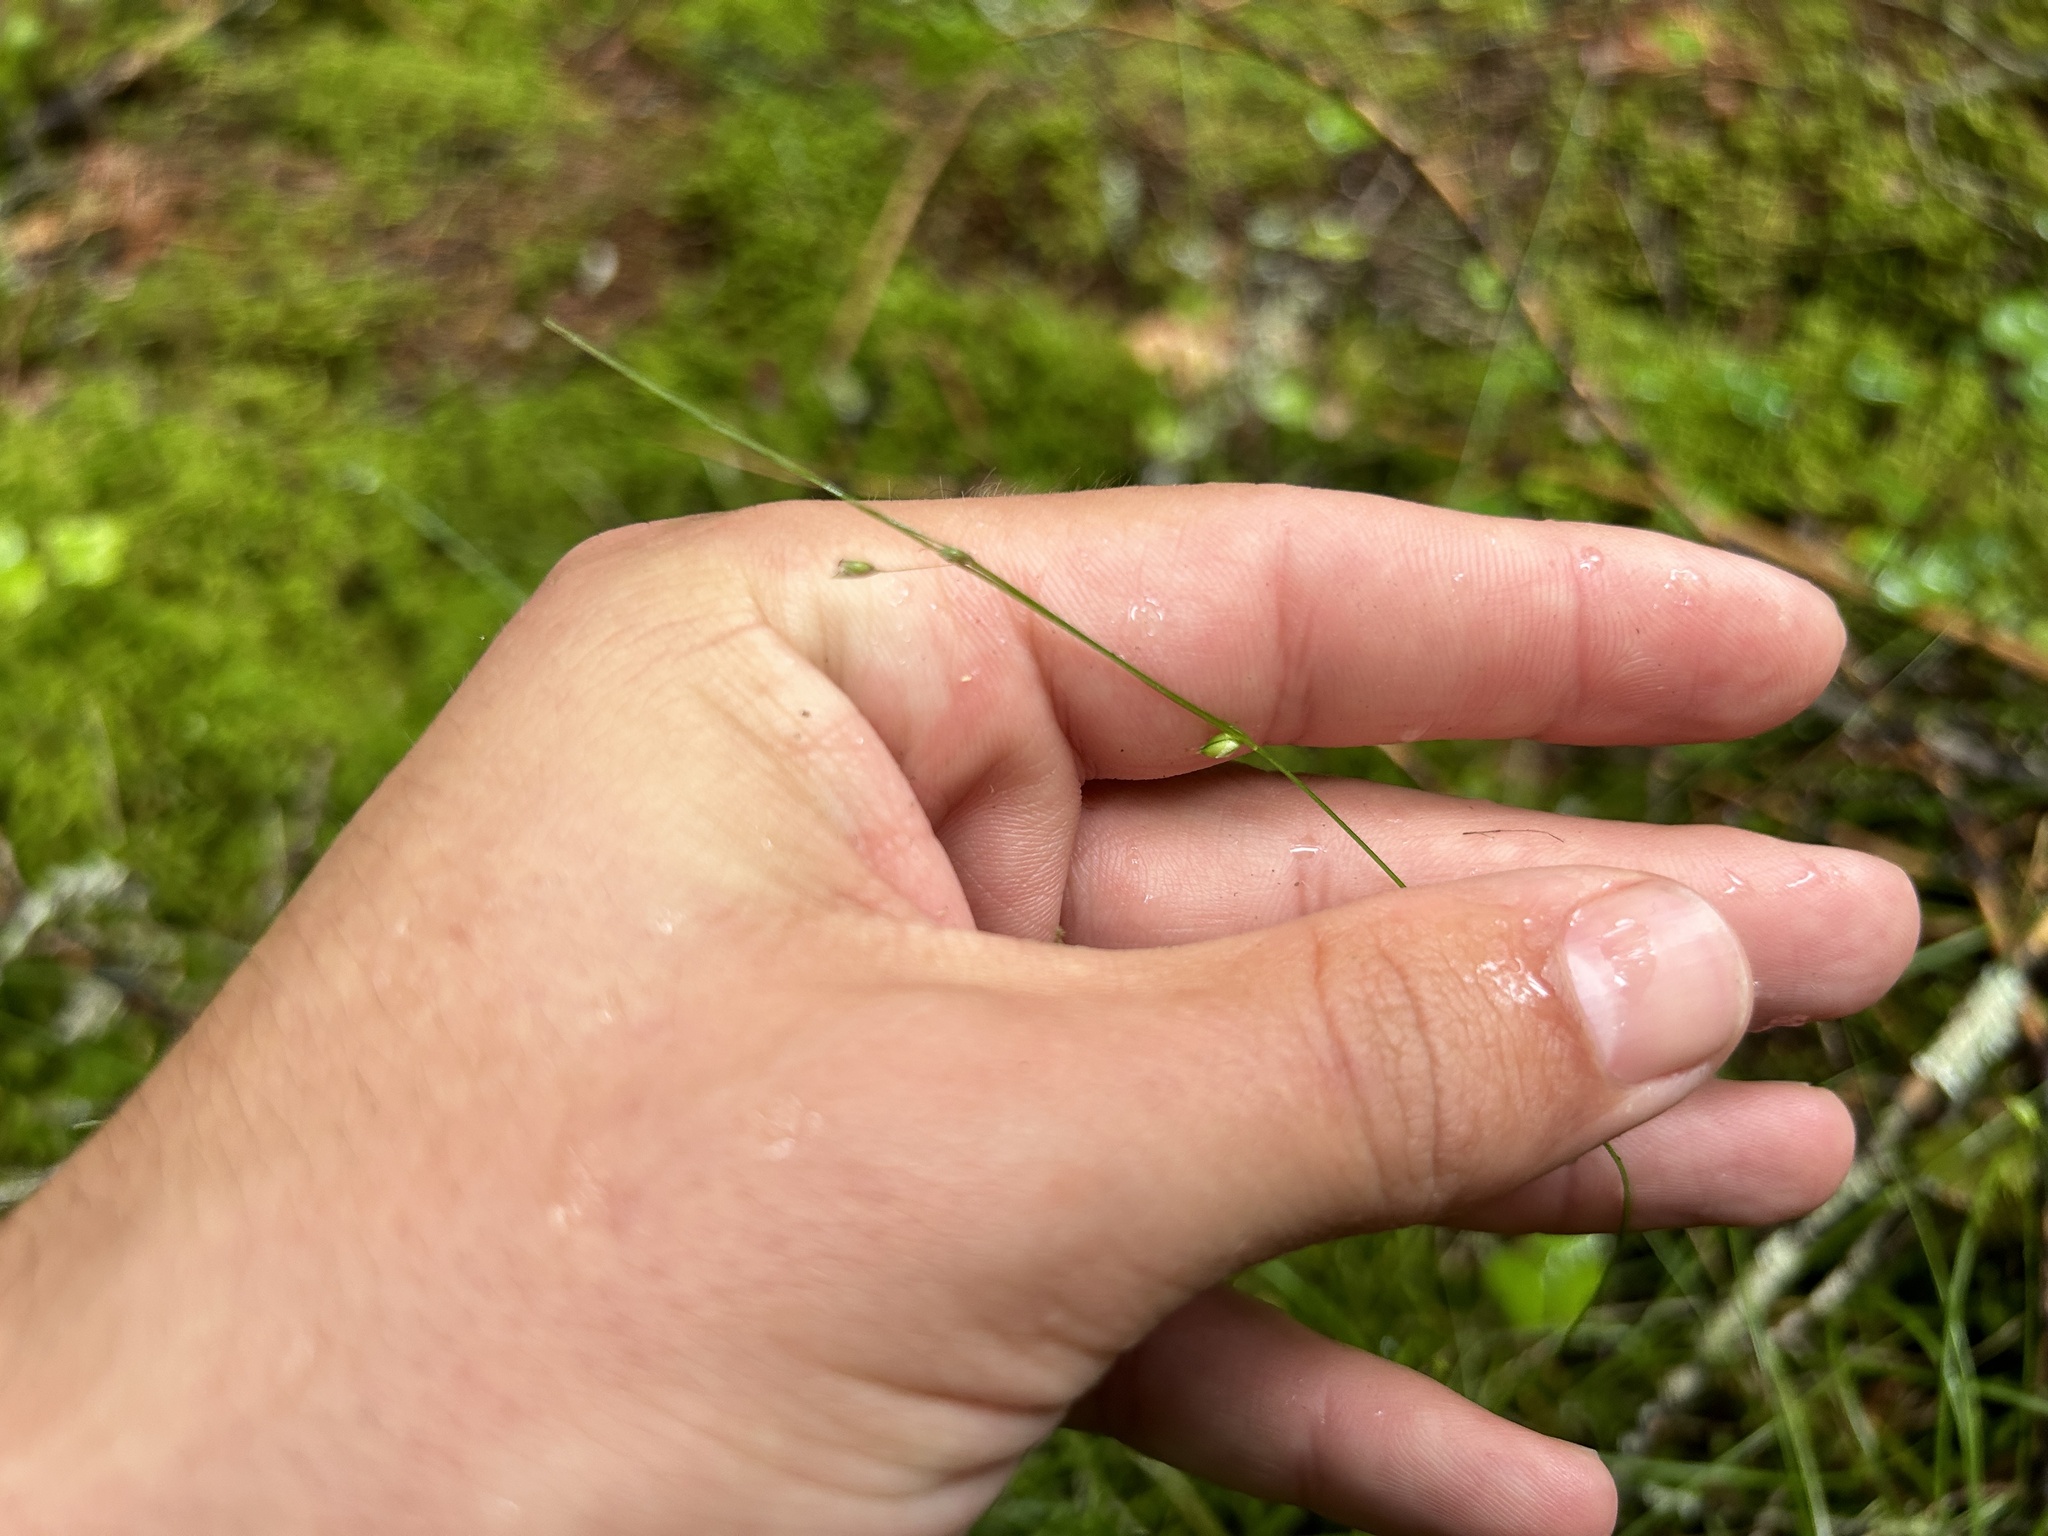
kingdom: Plantae
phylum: Tracheophyta
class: Liliopsida
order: Poales
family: Cyperaceae
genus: Carex
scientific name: Carex trisperma
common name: Three-seeded sedge
